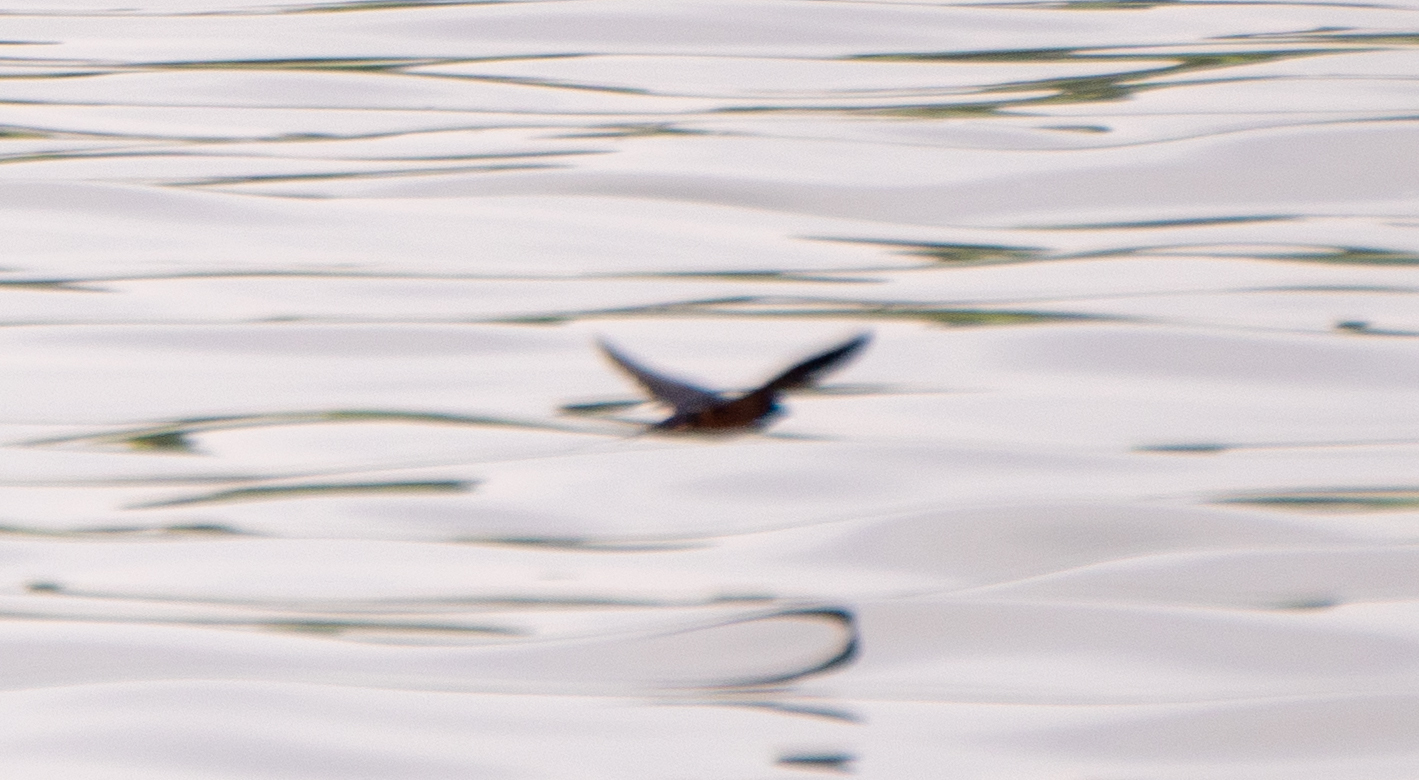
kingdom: Animalia
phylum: Chordata
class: Aves
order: Passeriformes
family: Hirundinidae
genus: Hirundo
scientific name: Hirundo rustica
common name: Barn swallow
